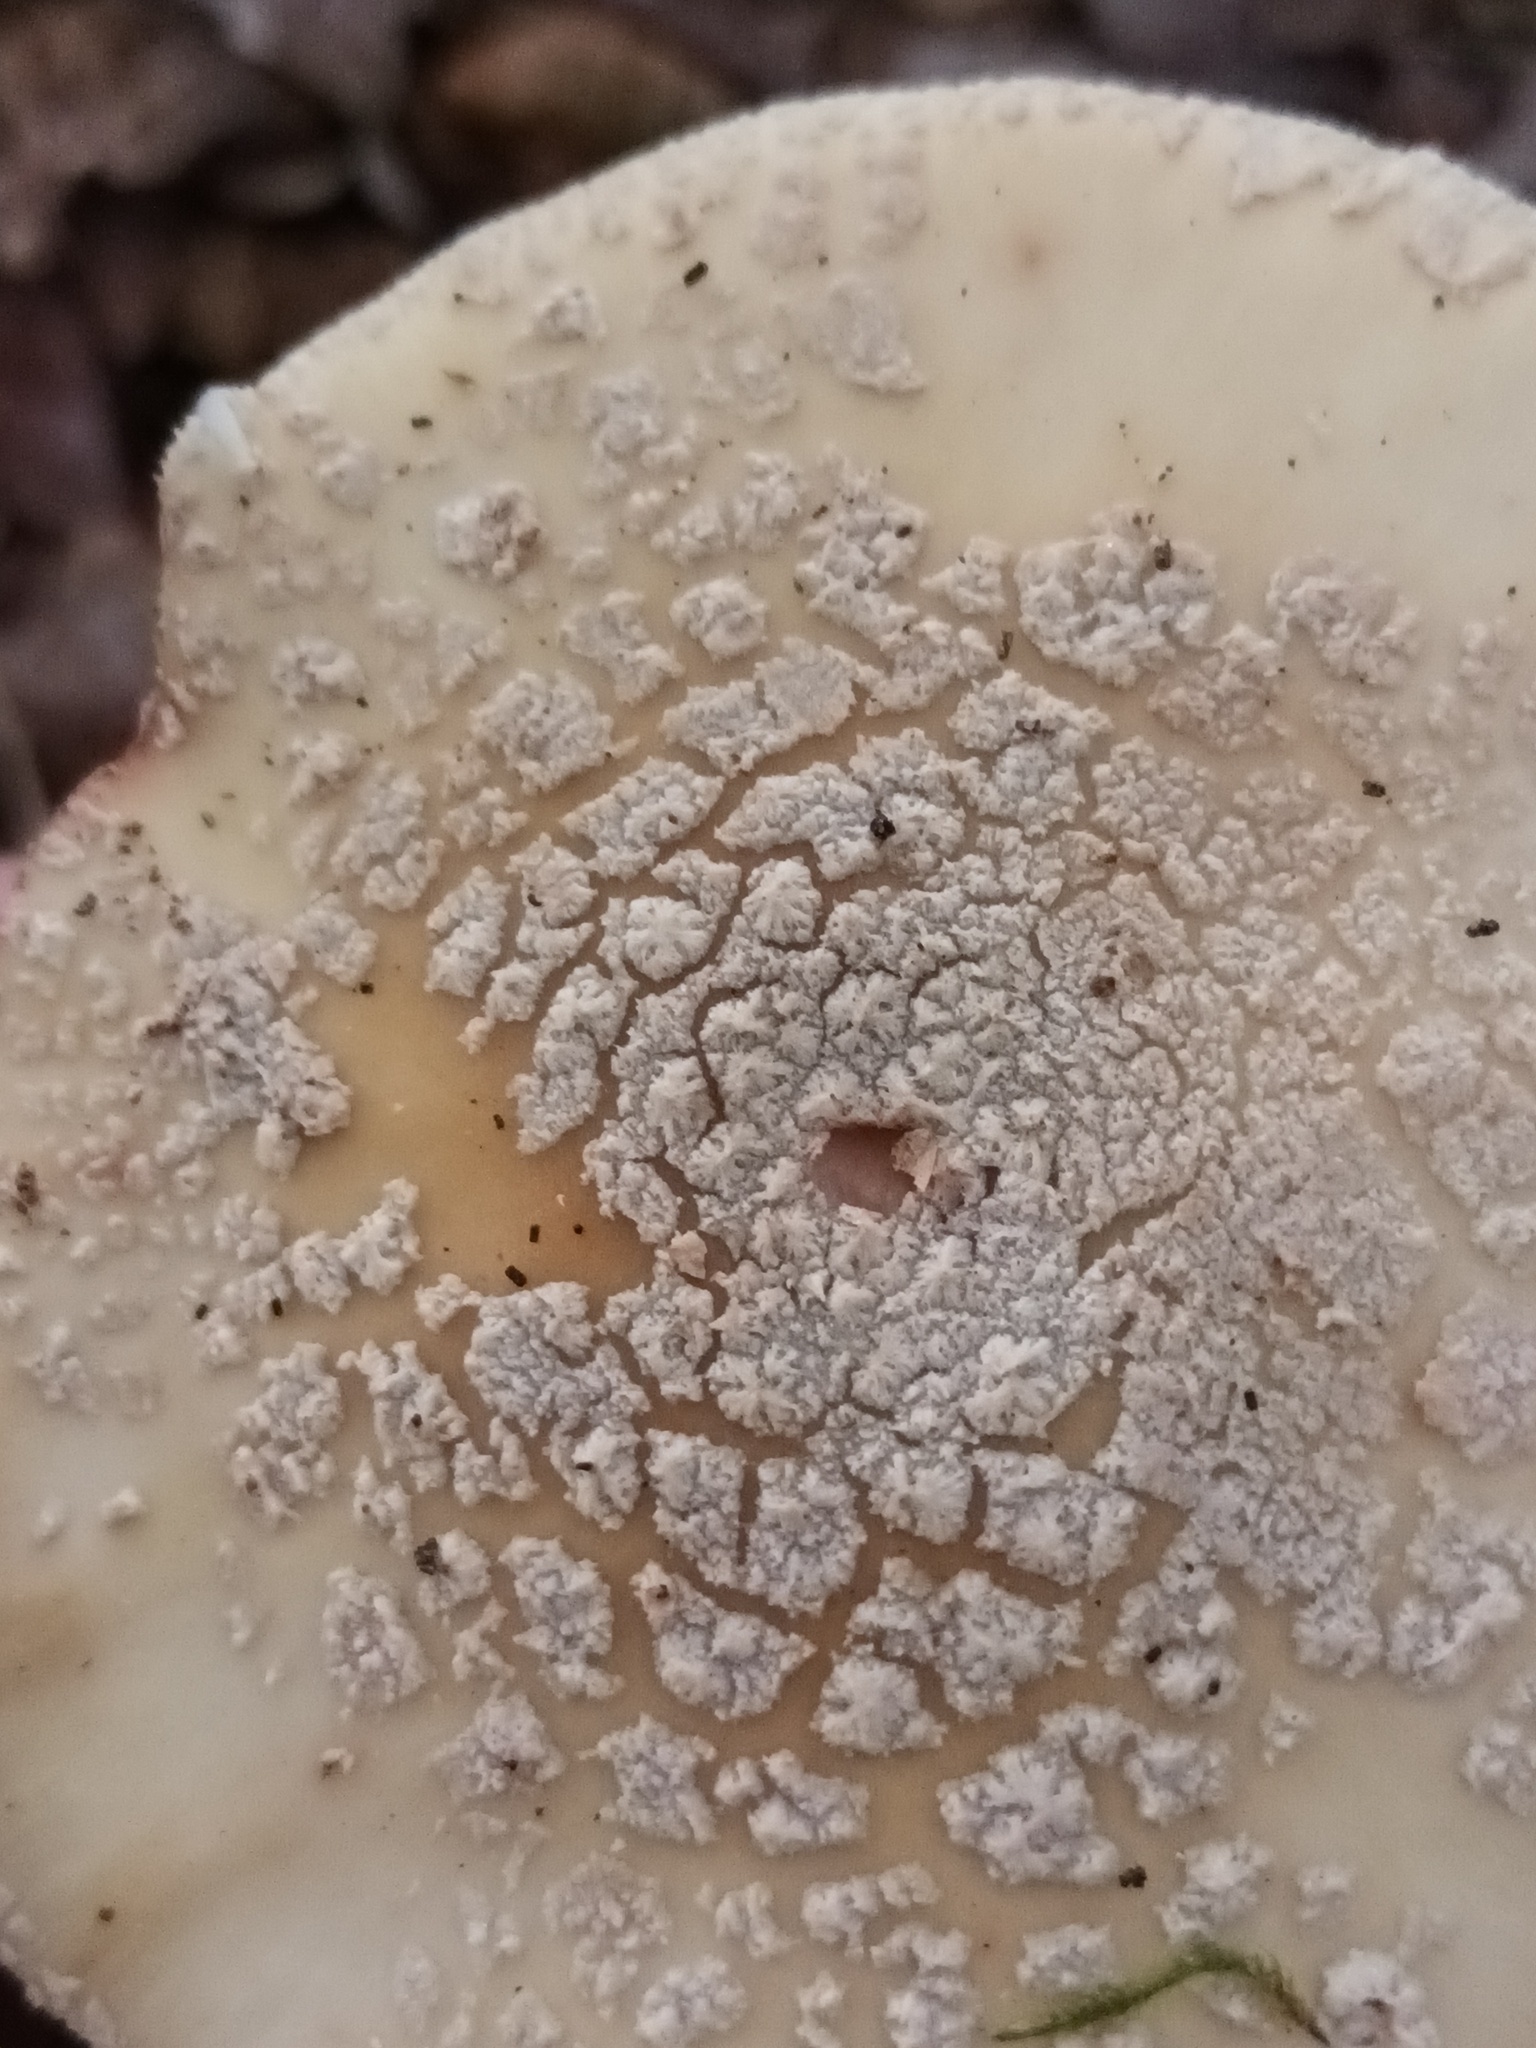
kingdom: Fungi
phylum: Basidiomycota
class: Agaricomycetes
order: Agaricales
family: Amanitaceae
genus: Amanita
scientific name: Amanita rubescens
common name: Blusher
